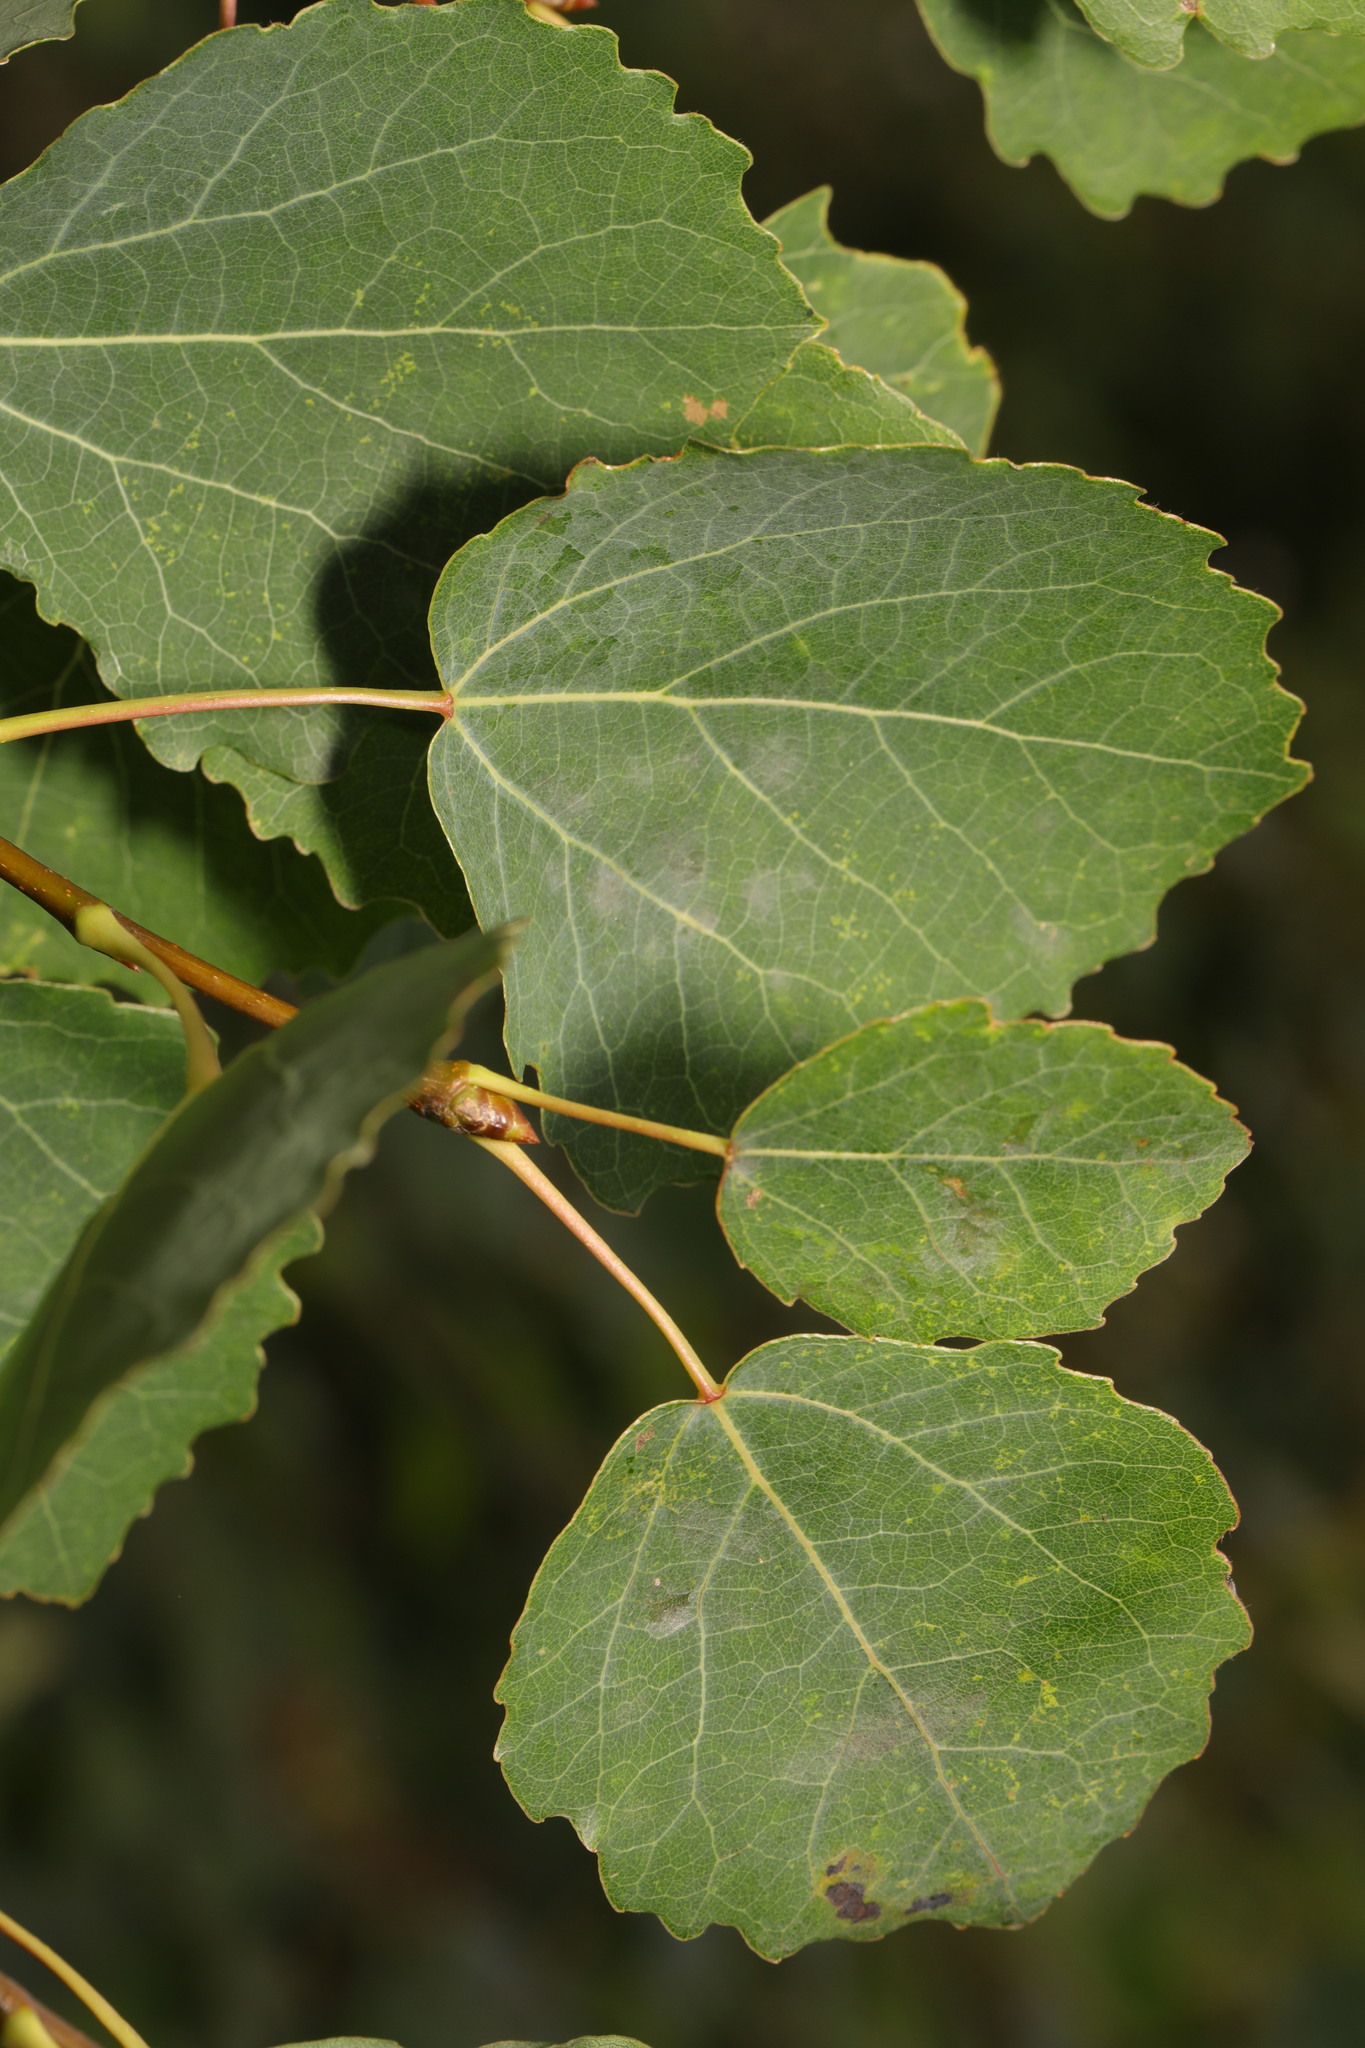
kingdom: Plantae
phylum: Tracheophyta
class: Magnoliopsida
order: Malpighiales
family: Salicaceae
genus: Populus
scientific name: Populus tremula
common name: European aspen
